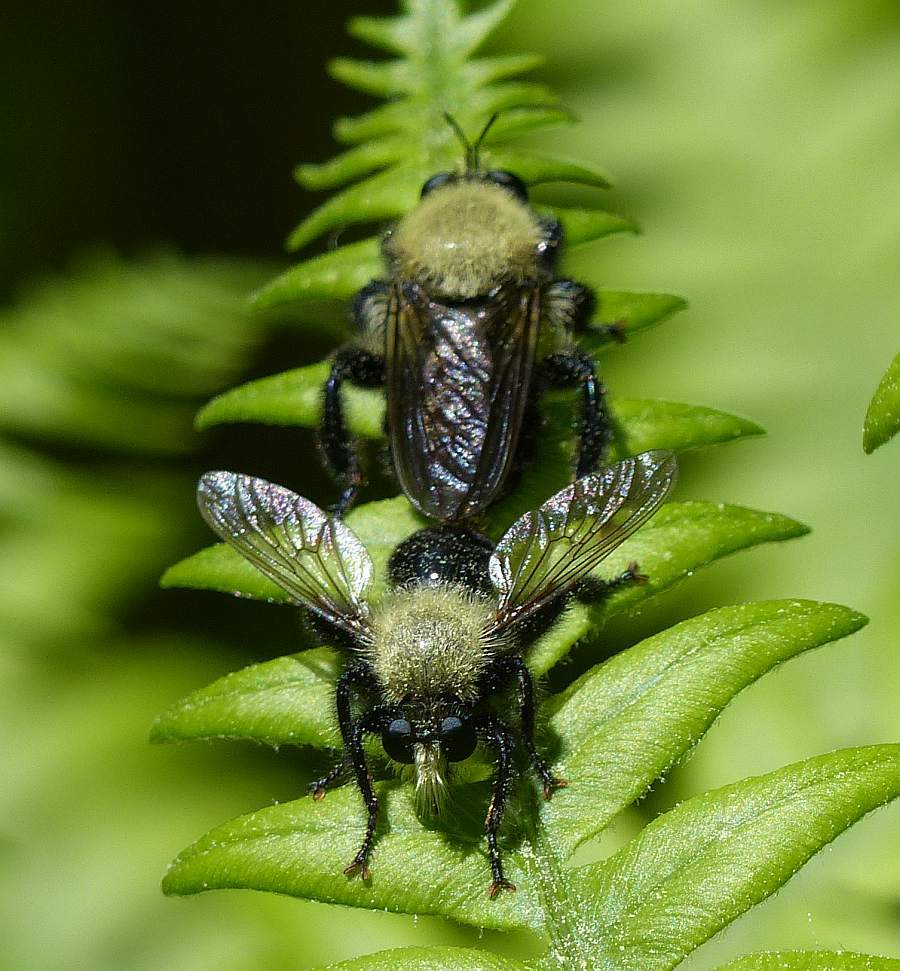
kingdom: Animalia
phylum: Arthropoda
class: Insecta
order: Diptera
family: Asilidae
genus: Laphria
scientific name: Laphria flavicollis
